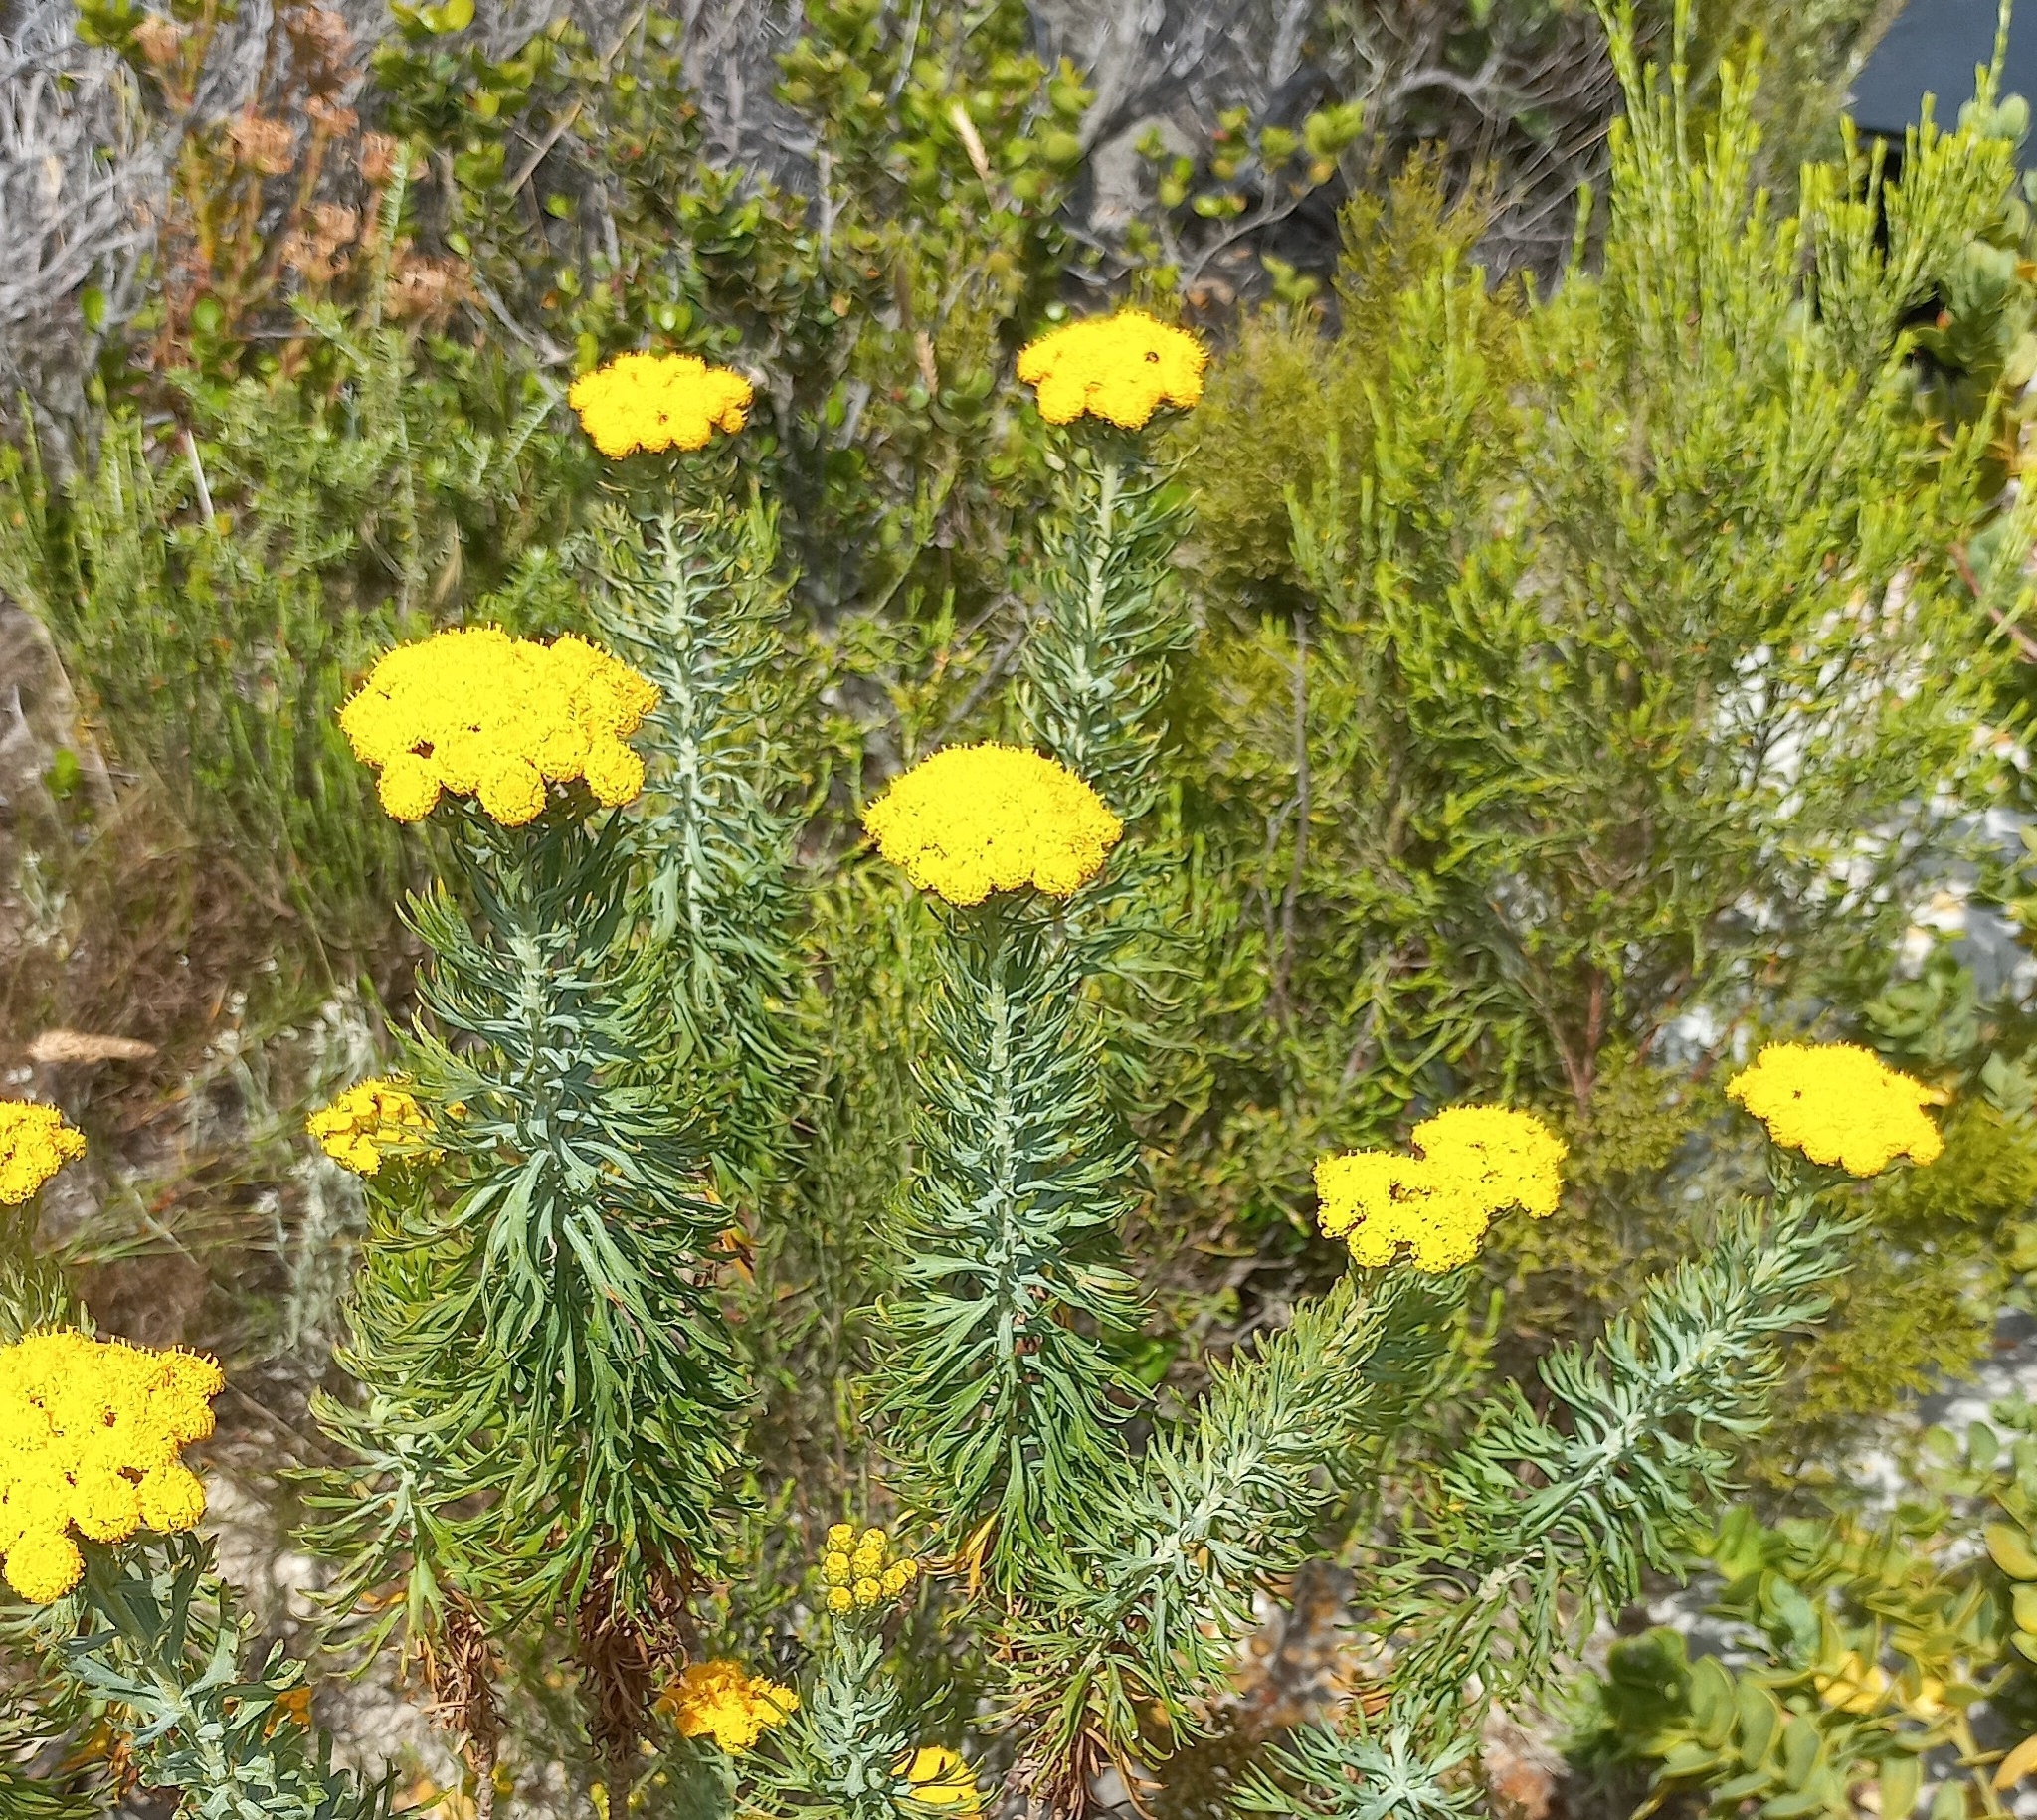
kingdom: Plantae
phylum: Tracheophyta
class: Magnoliopsida
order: Asterales
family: Asteraceae
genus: Athanasia
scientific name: Athanasia trifurcata
